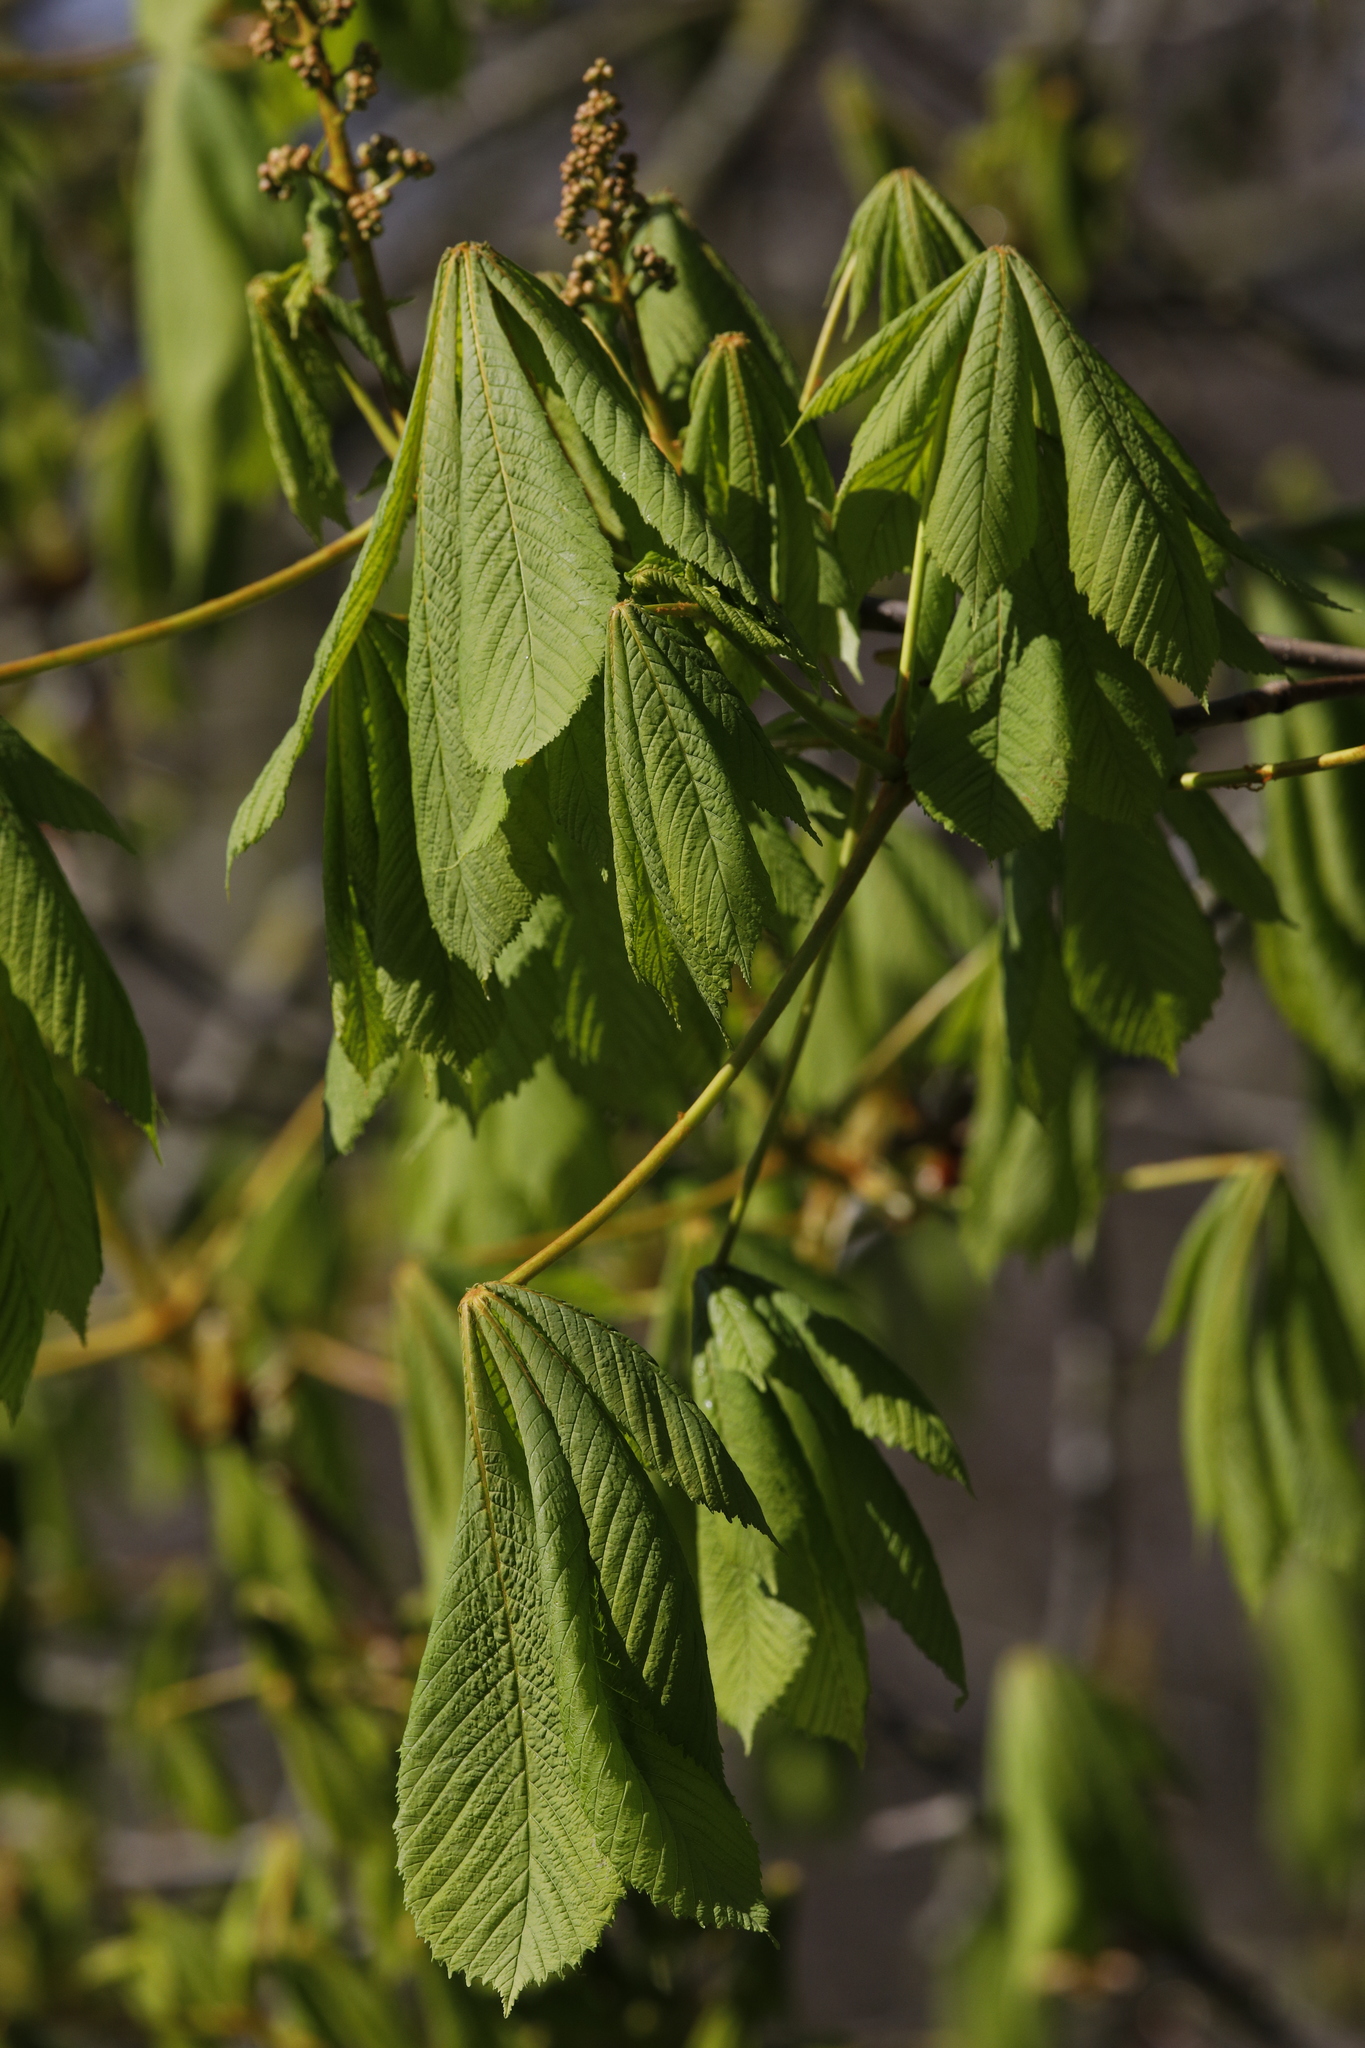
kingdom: Plantae
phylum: Tracheophyta
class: Magnoliopsida
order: Sapindales
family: Sapindaceae
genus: Aesculus
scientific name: Aesculus hippocastanum
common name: Horse-chestnut
